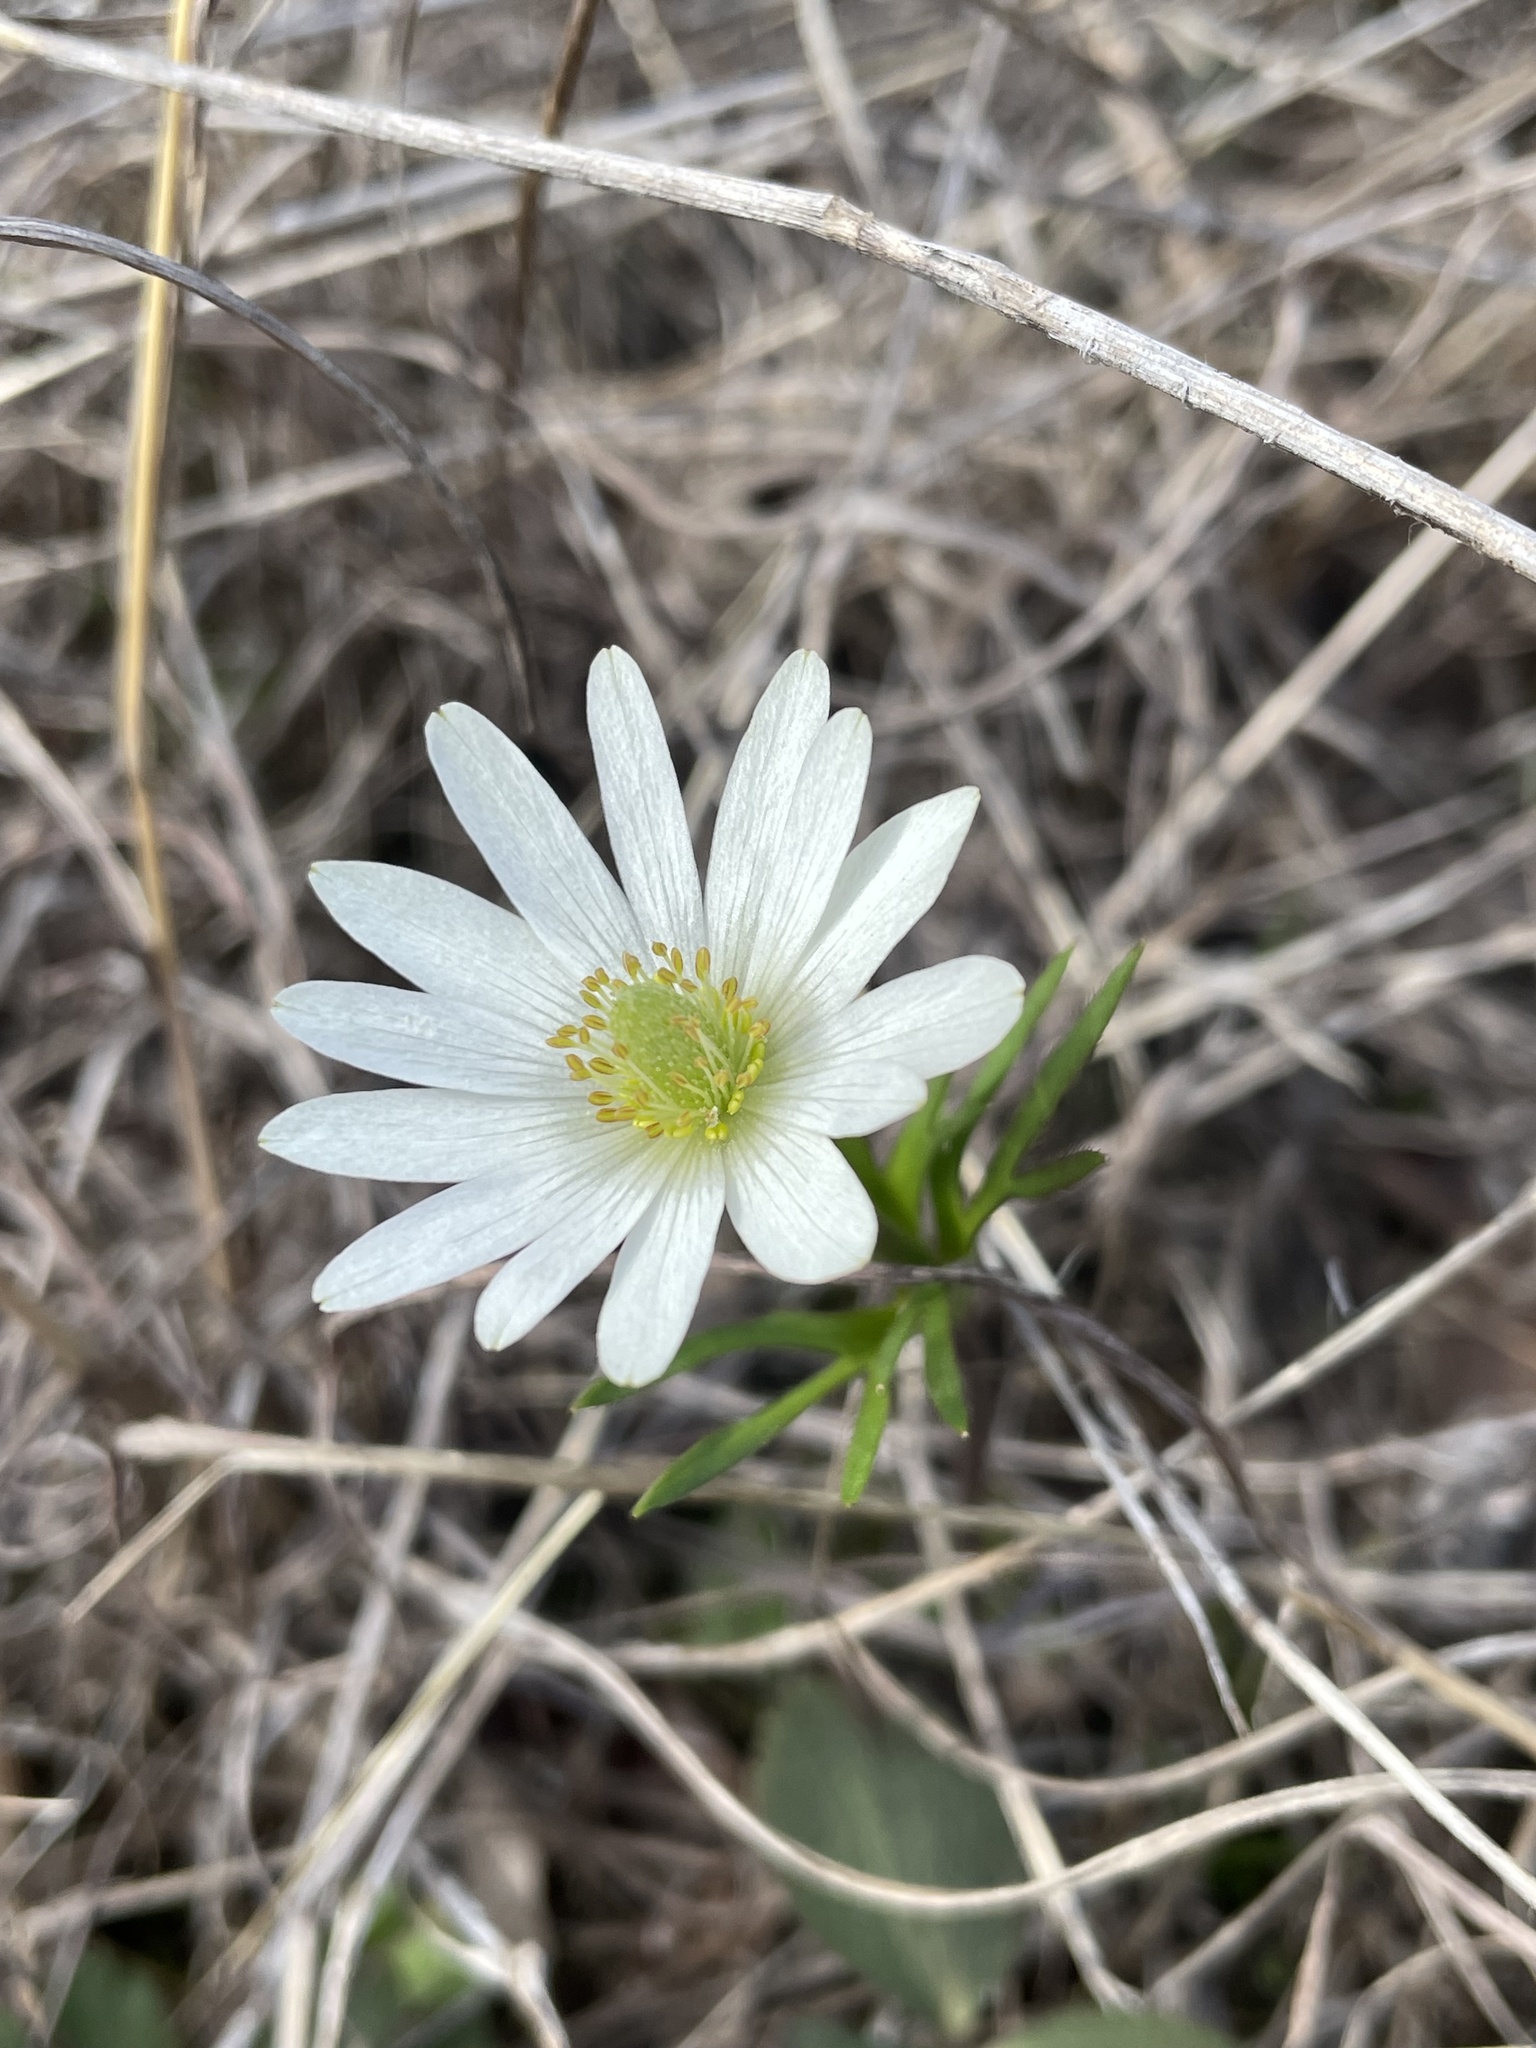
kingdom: Plantae
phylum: Tracheophyta
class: Magnoliopsida
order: Ranunculales
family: Ranunculaceae
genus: Anemone
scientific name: Anemone berlandieri
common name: Ten-petal anemone
